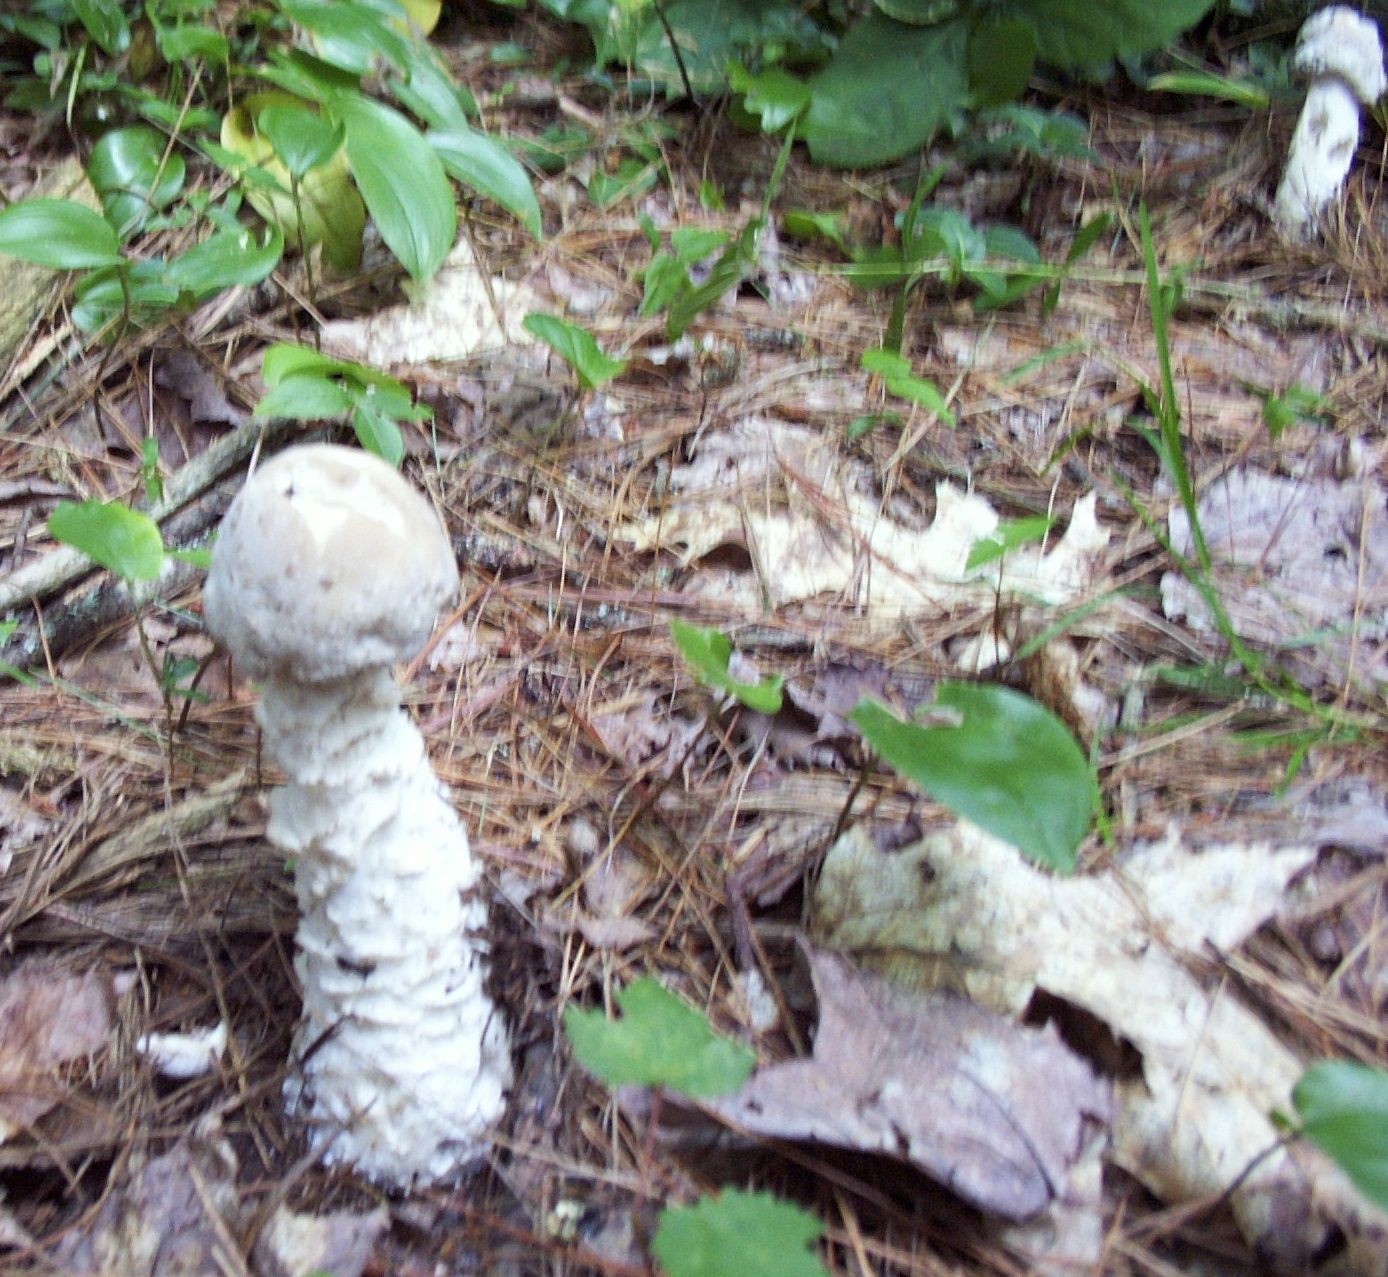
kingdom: Fungi
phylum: Ascomycota
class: Sordariomycetes
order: Hypocreales
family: Hypocreaceae
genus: Hypomyces
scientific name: Hypomyces hyalinus
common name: Amanita mold
